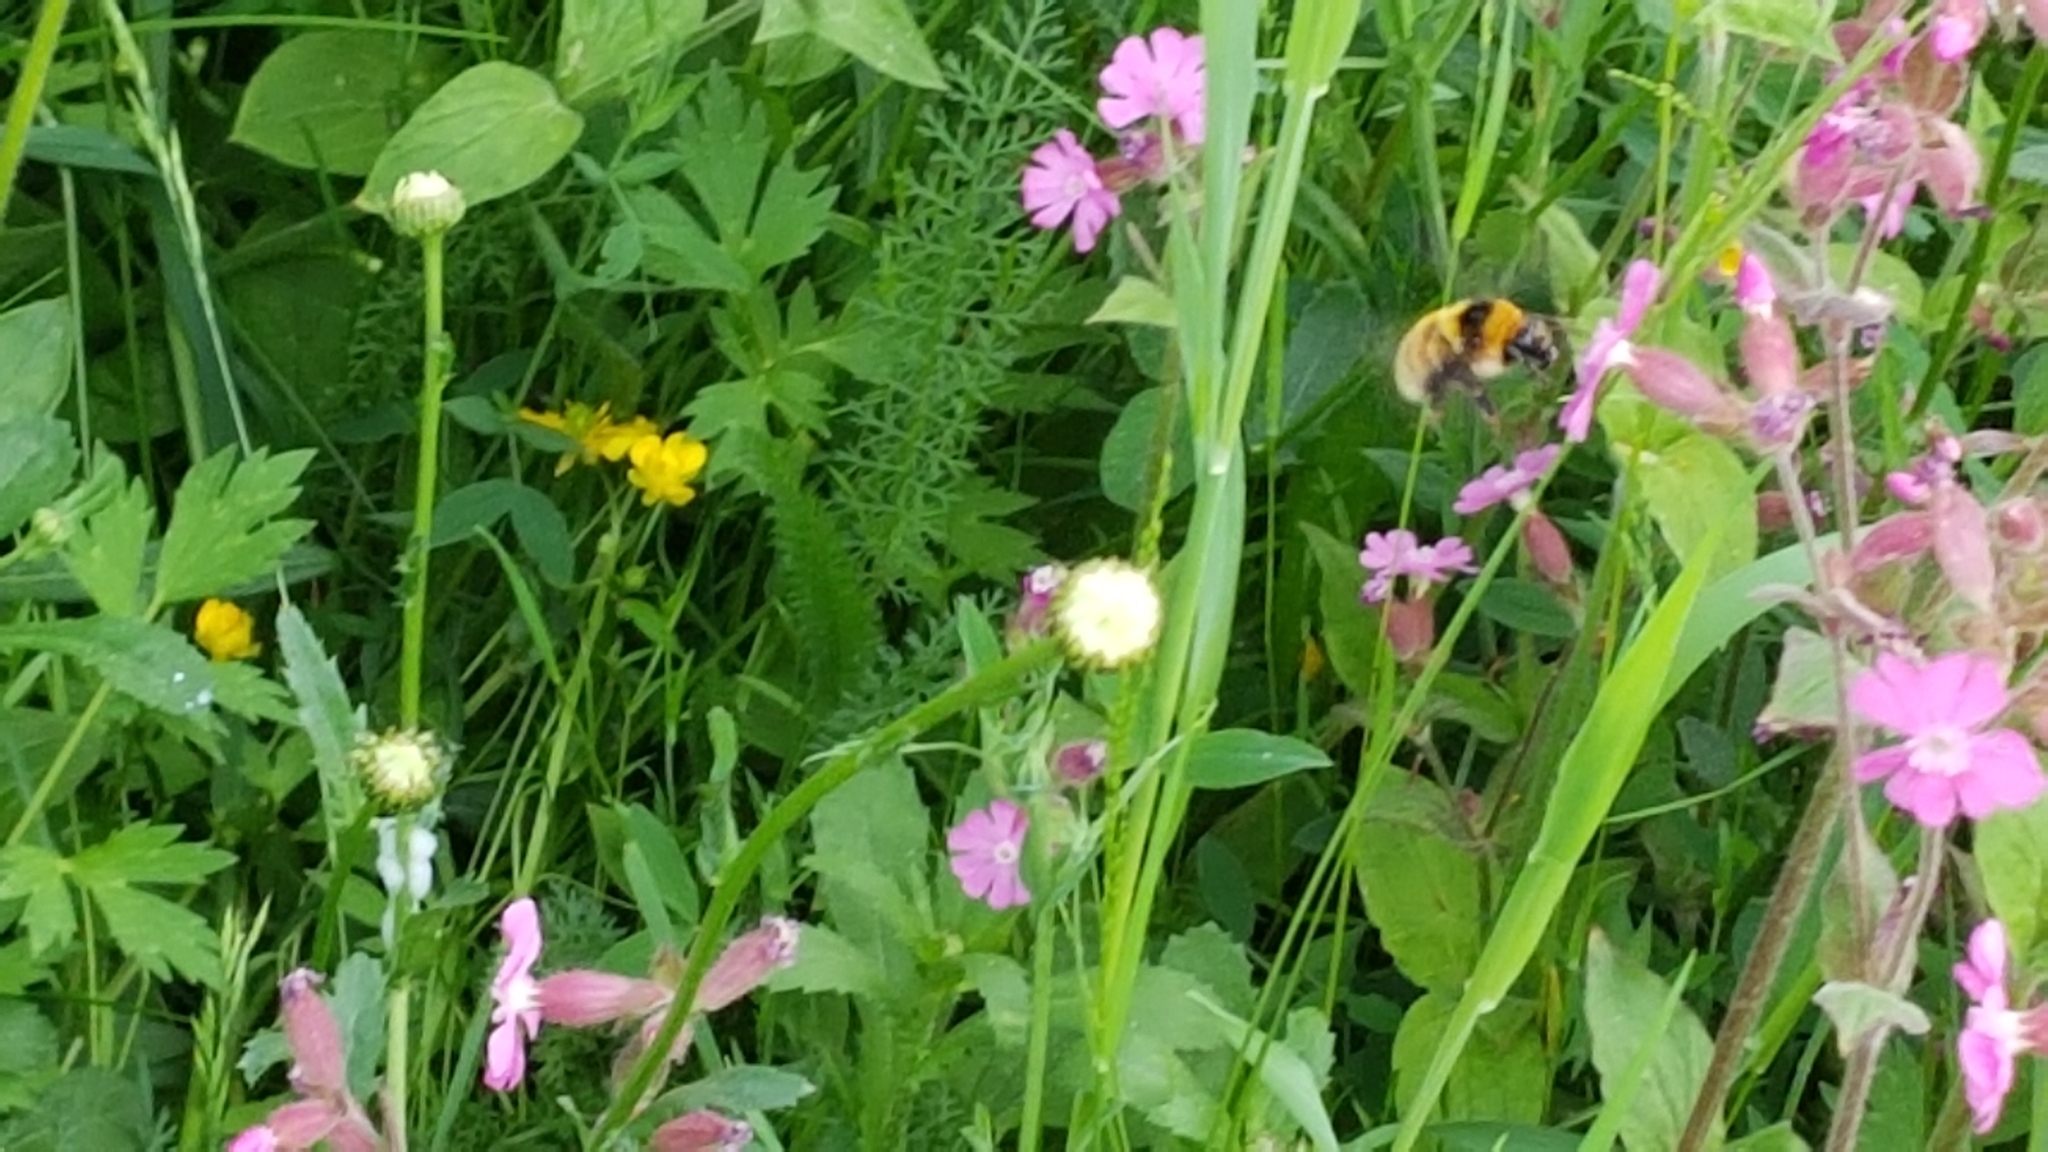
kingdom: Animalia
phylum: Arthropoda
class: Insecta
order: Hymenoptera
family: Apidae
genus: Bombus
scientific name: Bombus distinguendus
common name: Great yellow humble-bee
